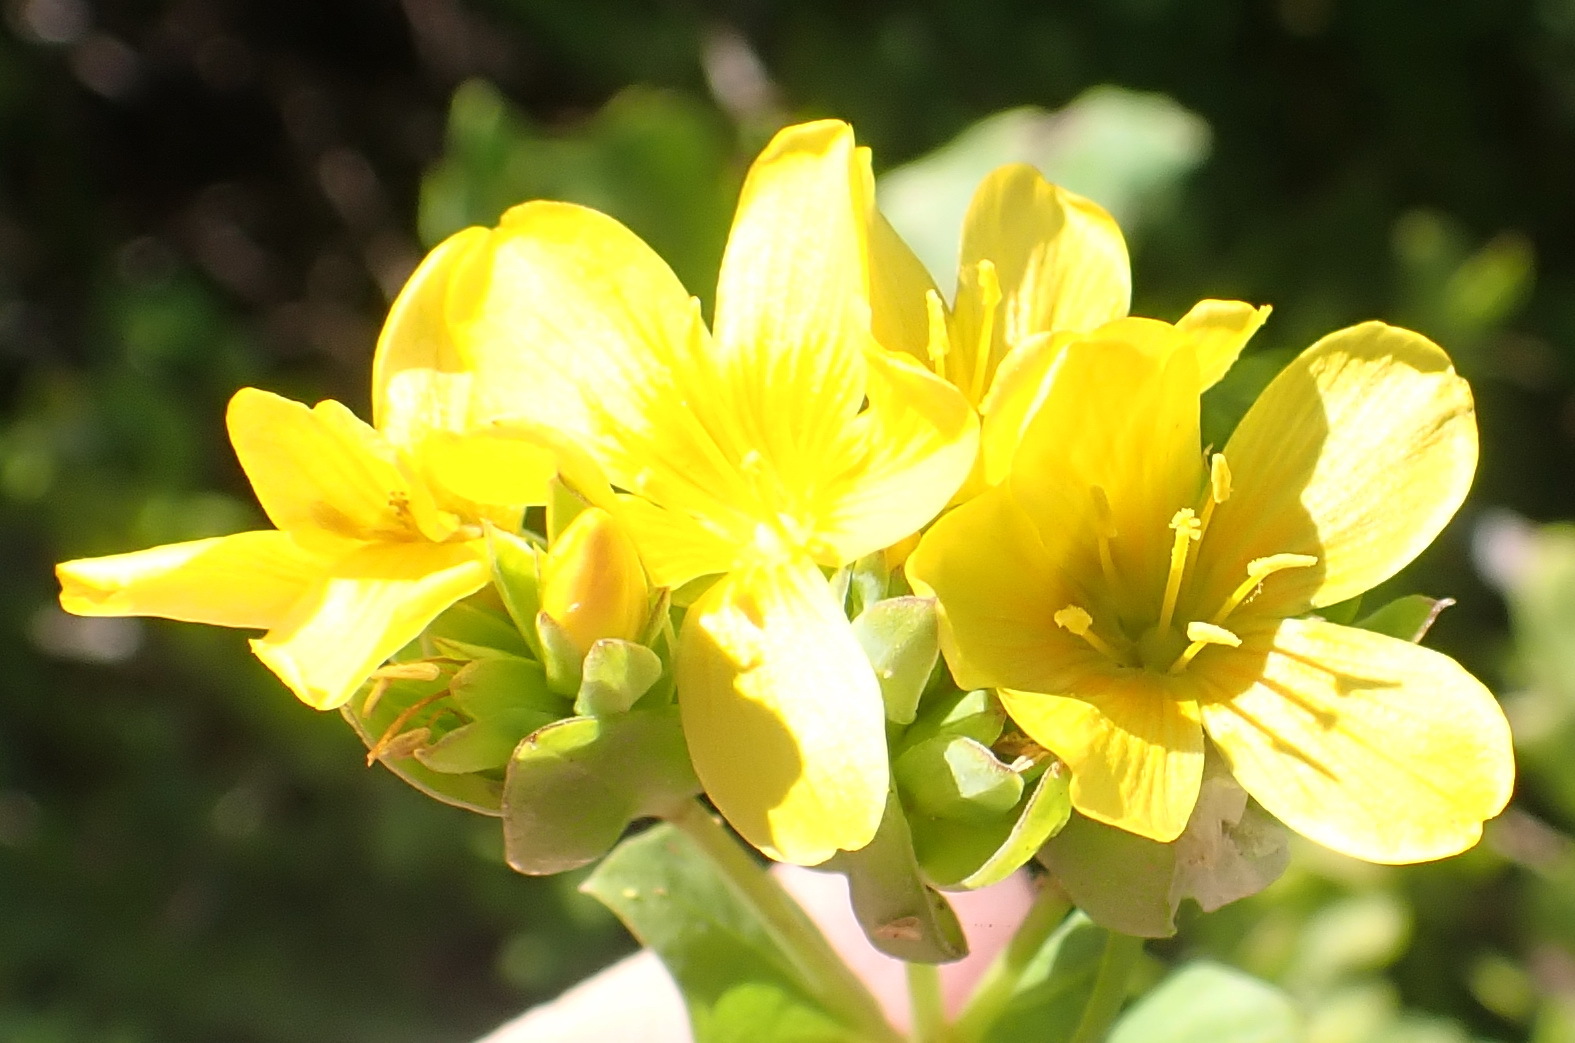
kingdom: Plantae
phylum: Tracheophyta
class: Magnoliopsida
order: Malpighiales
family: Linaceae
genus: Linum
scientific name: Linum aethiopicum
